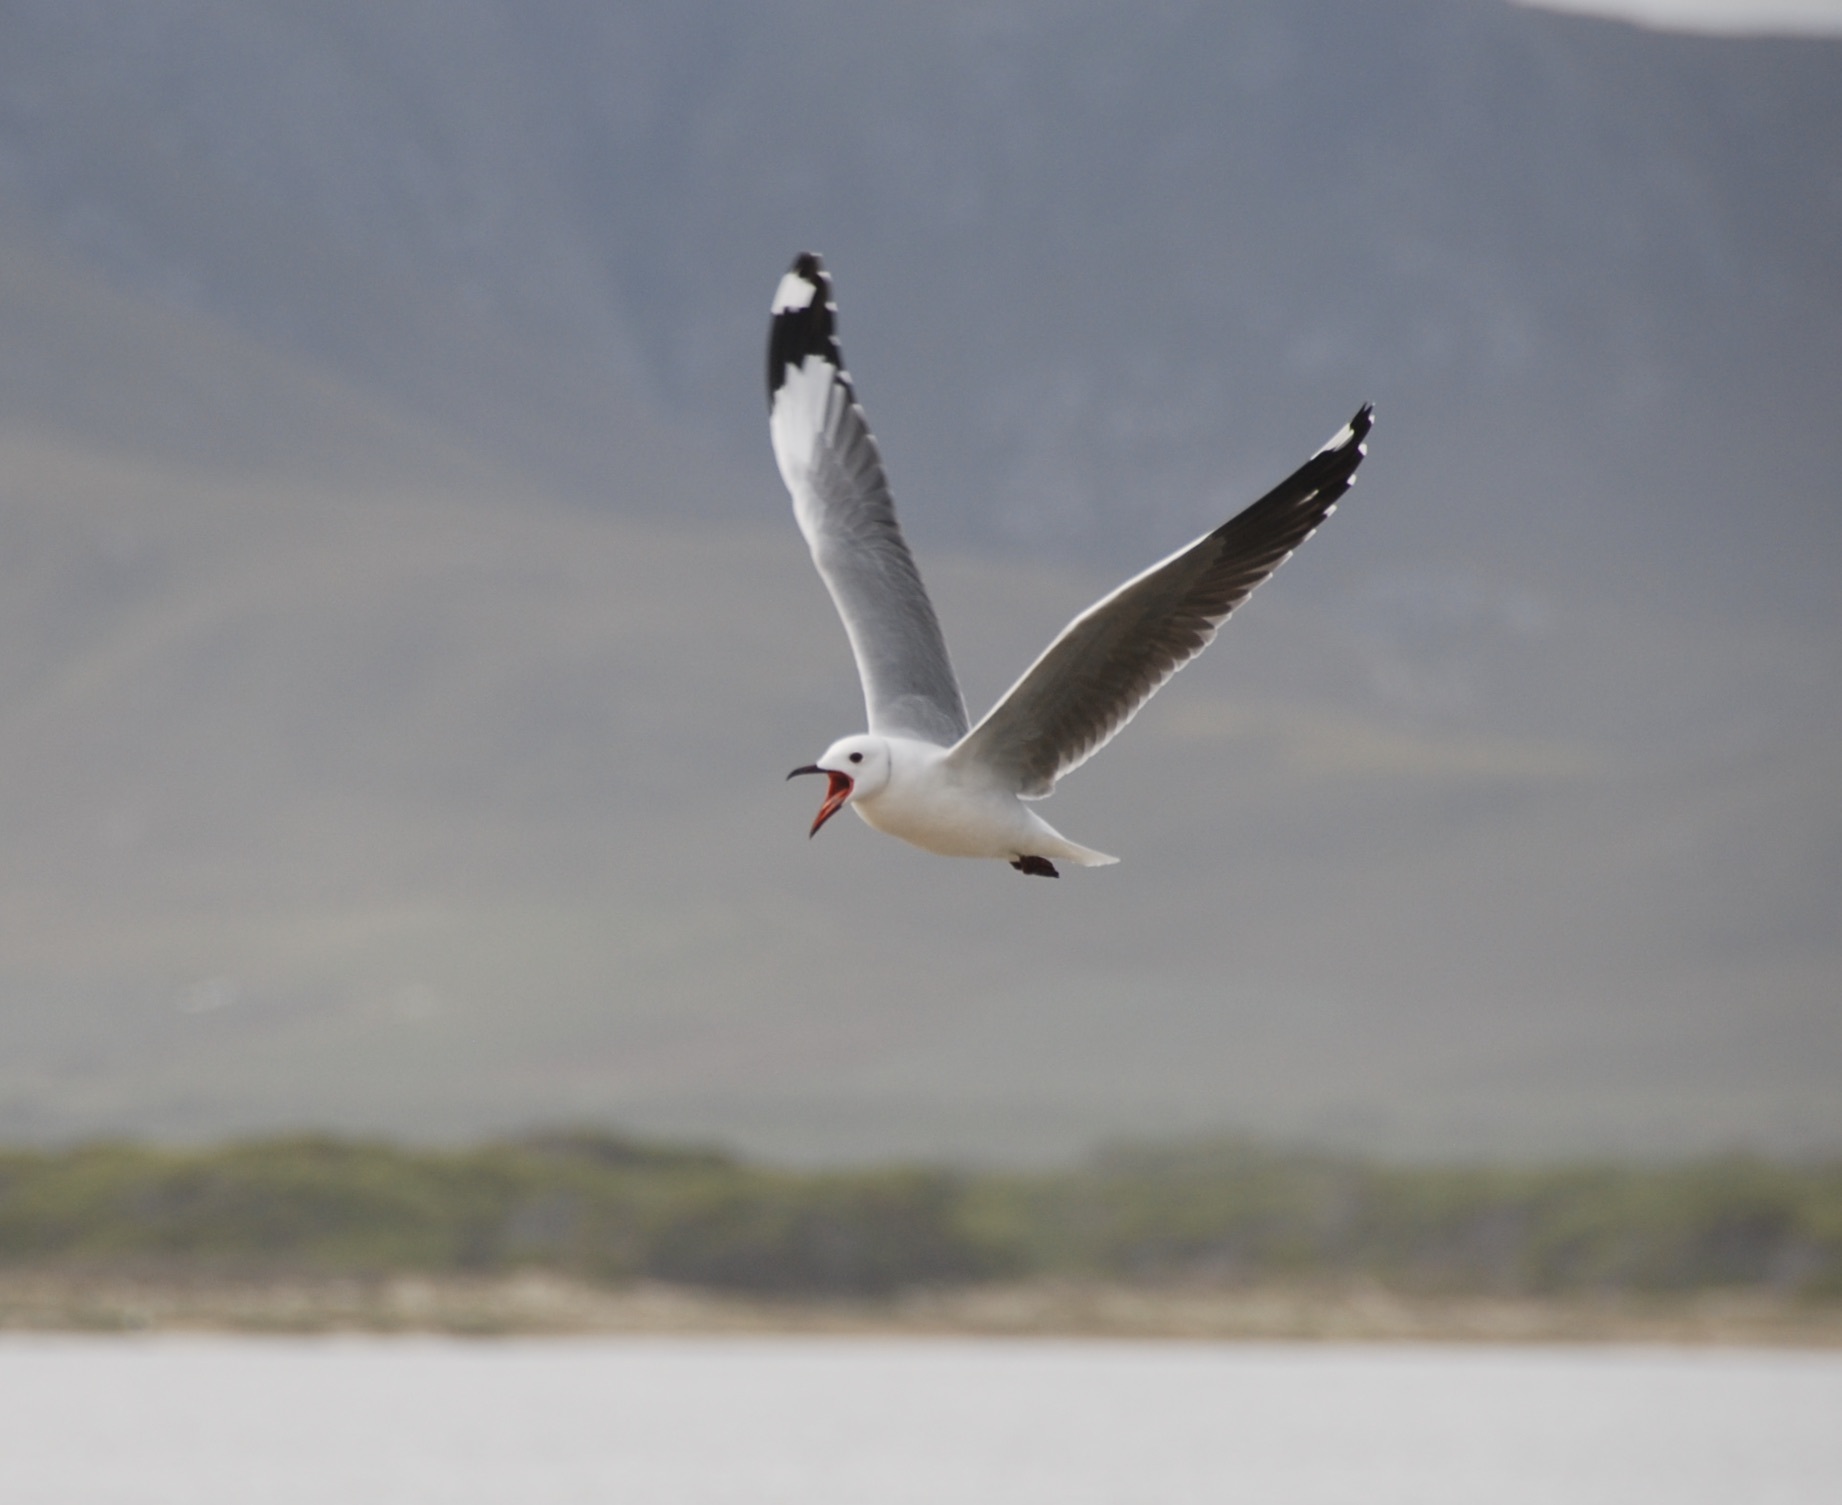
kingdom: Animalia
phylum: Chordata
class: Aves
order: Charadriiformes
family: Laridae
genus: Chroicocephalus
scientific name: Chroicocephalus hartlaubii
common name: Hartlaub's gull
